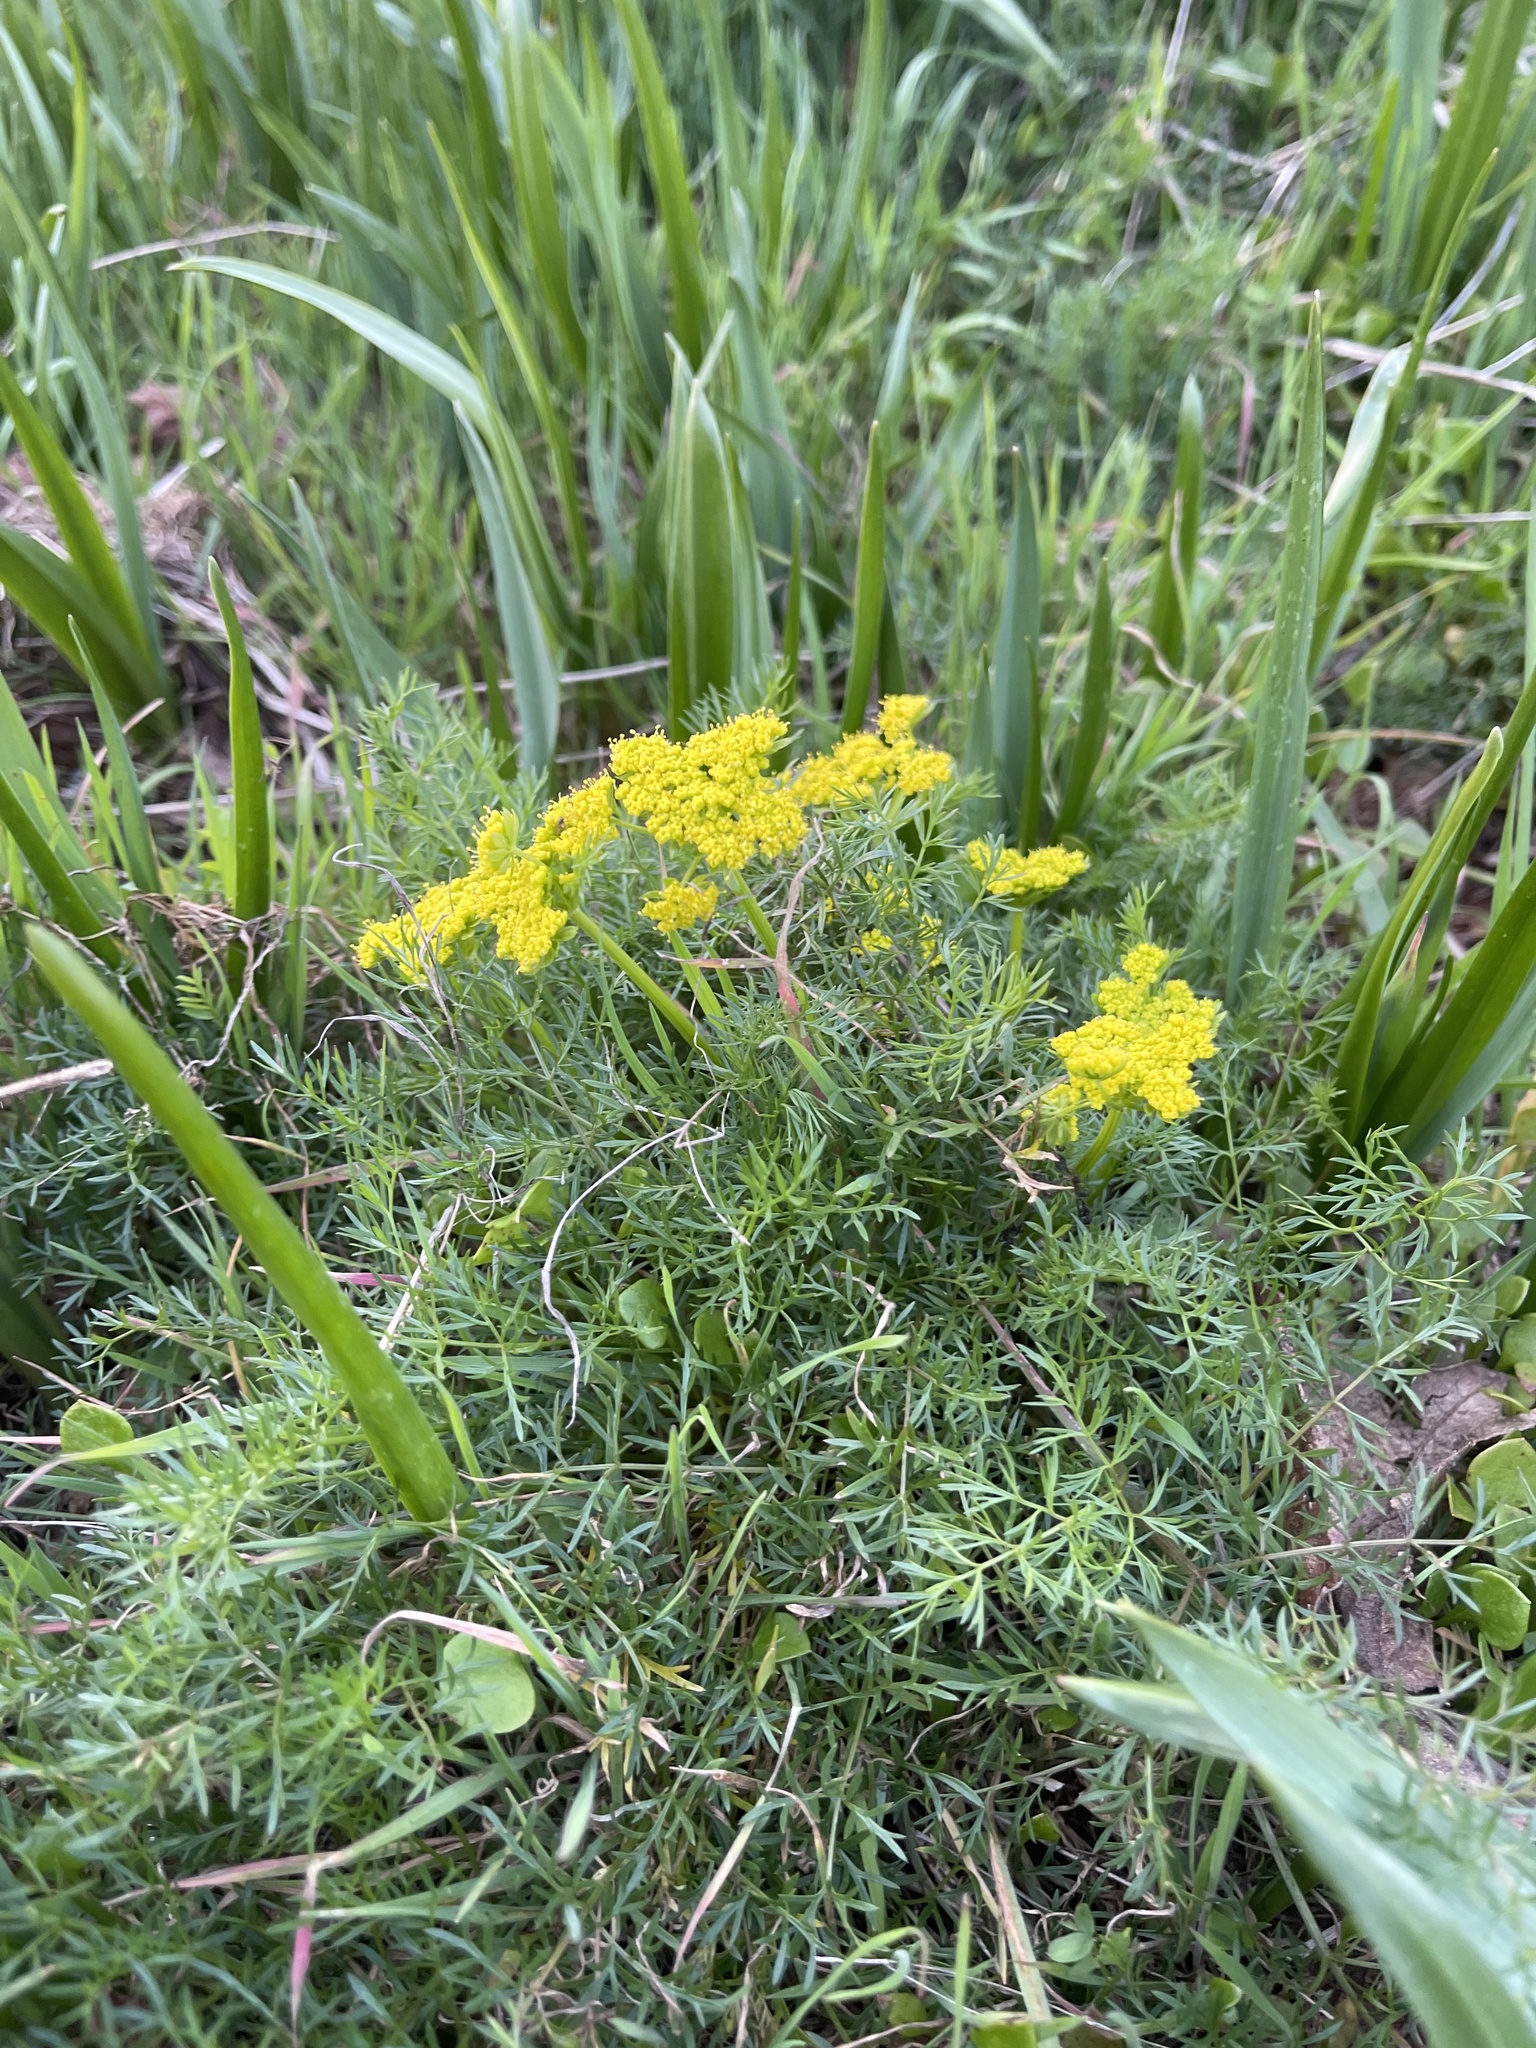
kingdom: Plantae
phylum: Tracheophyta
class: Magnoliopsida
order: Apiales
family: Apiaceae
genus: Lomatium
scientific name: Lomatium utriculatum
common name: Fine-leaf desert-parsley
